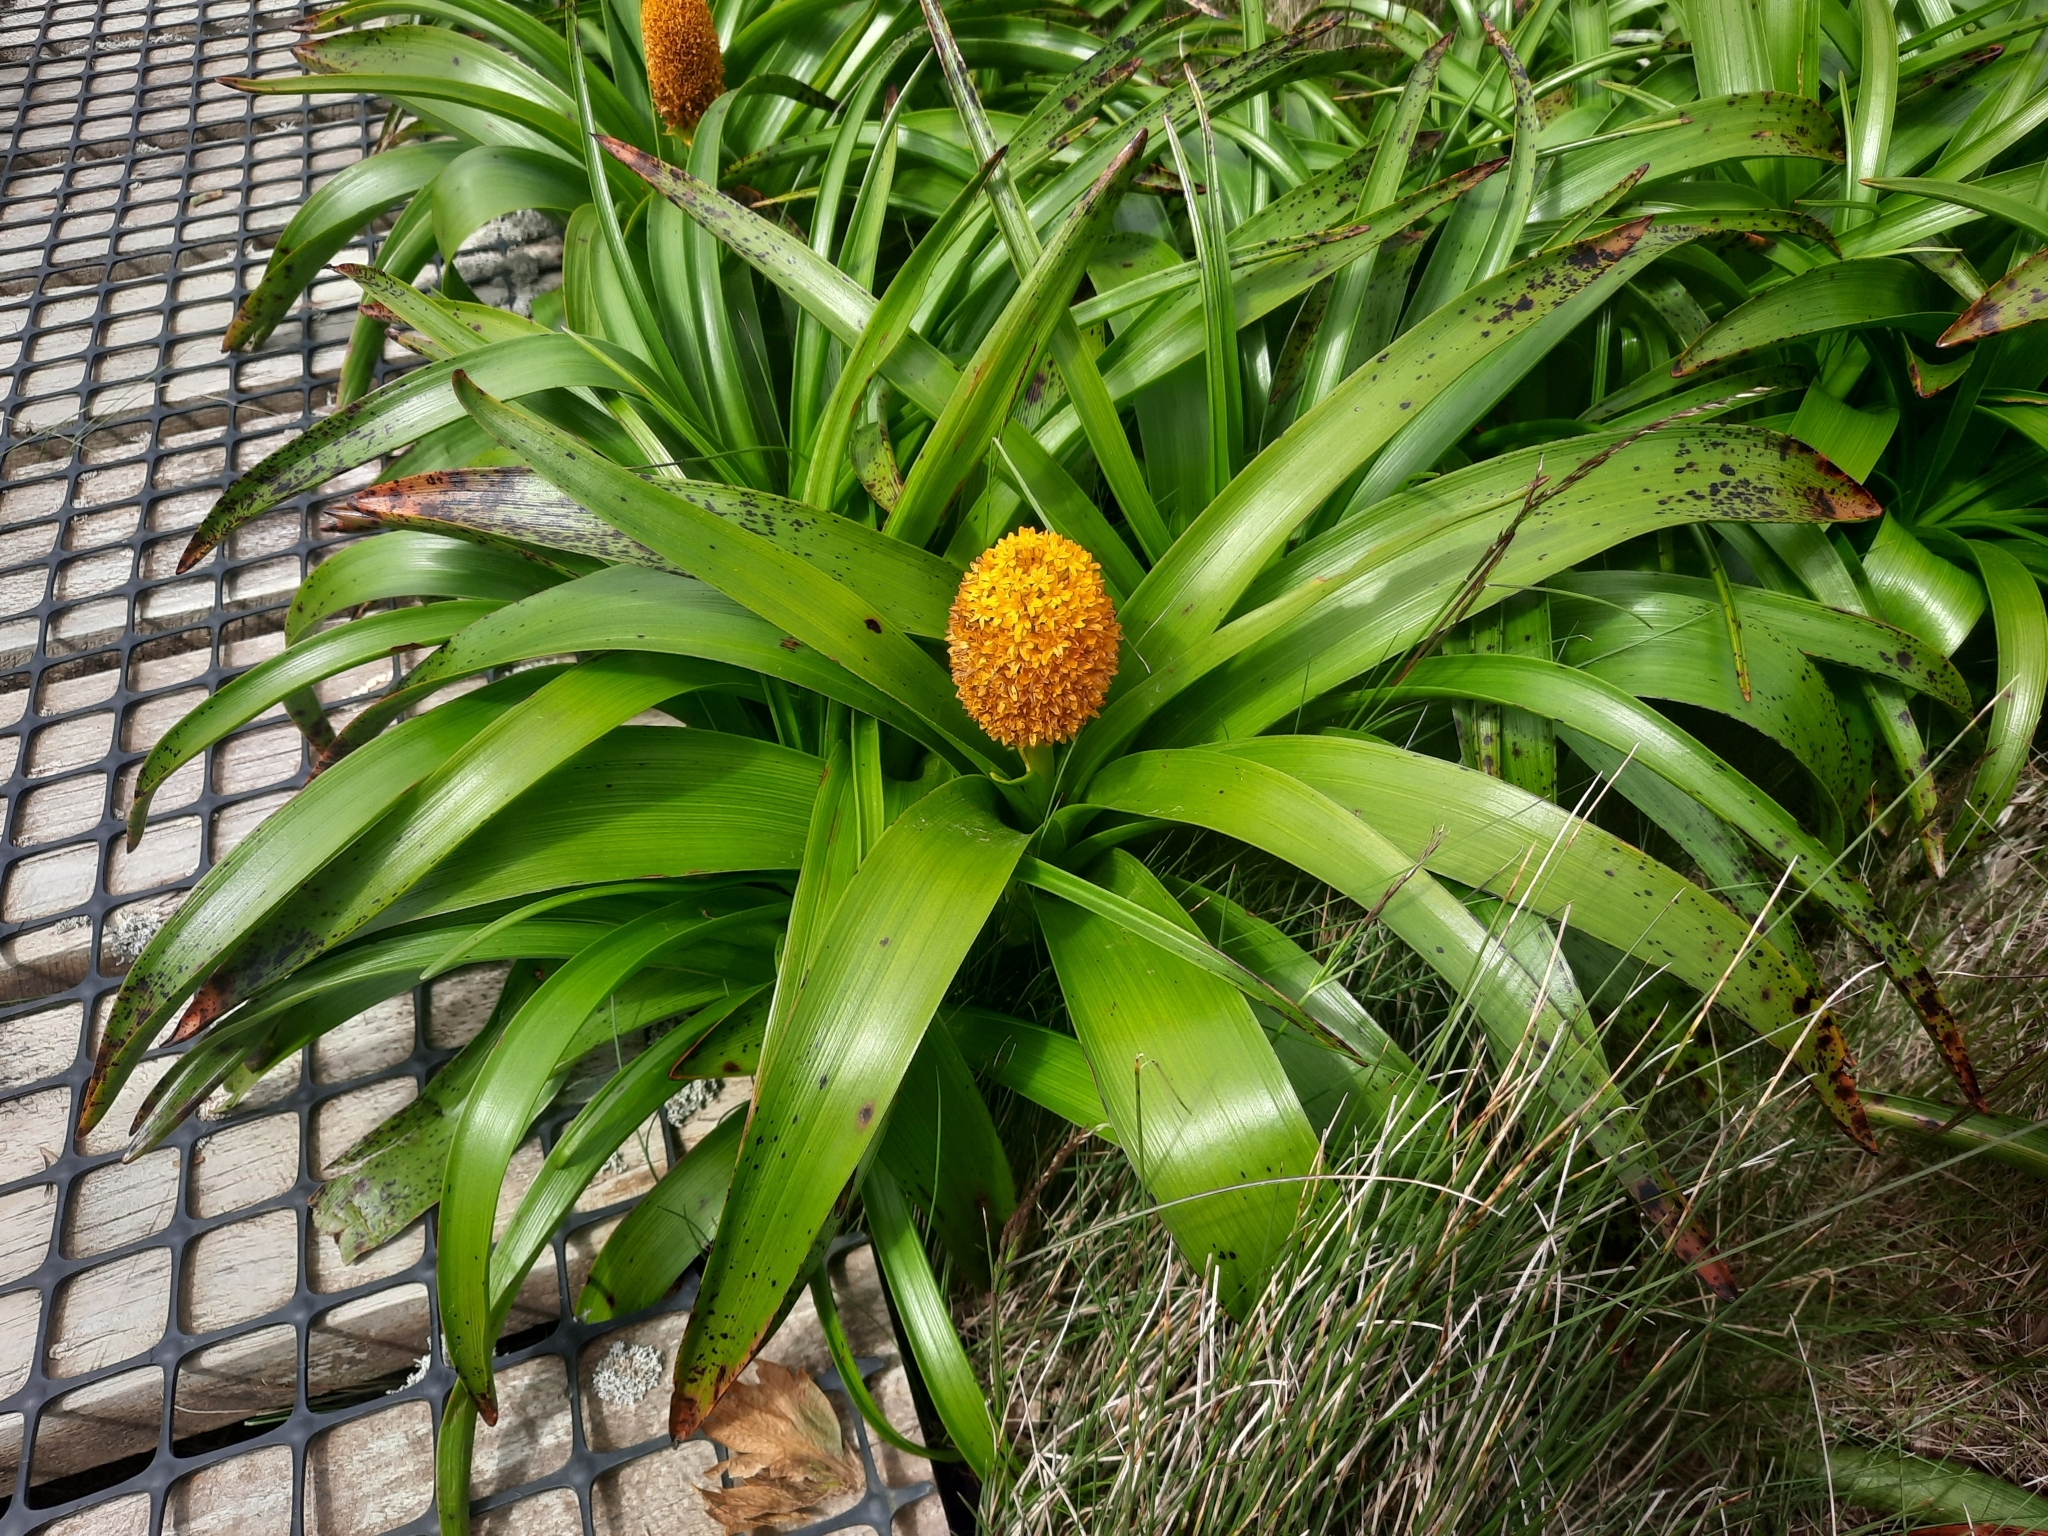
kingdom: Plantae
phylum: Tracheophyta
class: Liliopsida
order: Asparagales
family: Asphodelaceae
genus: Bulbinella
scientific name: Bulbinella rossii
